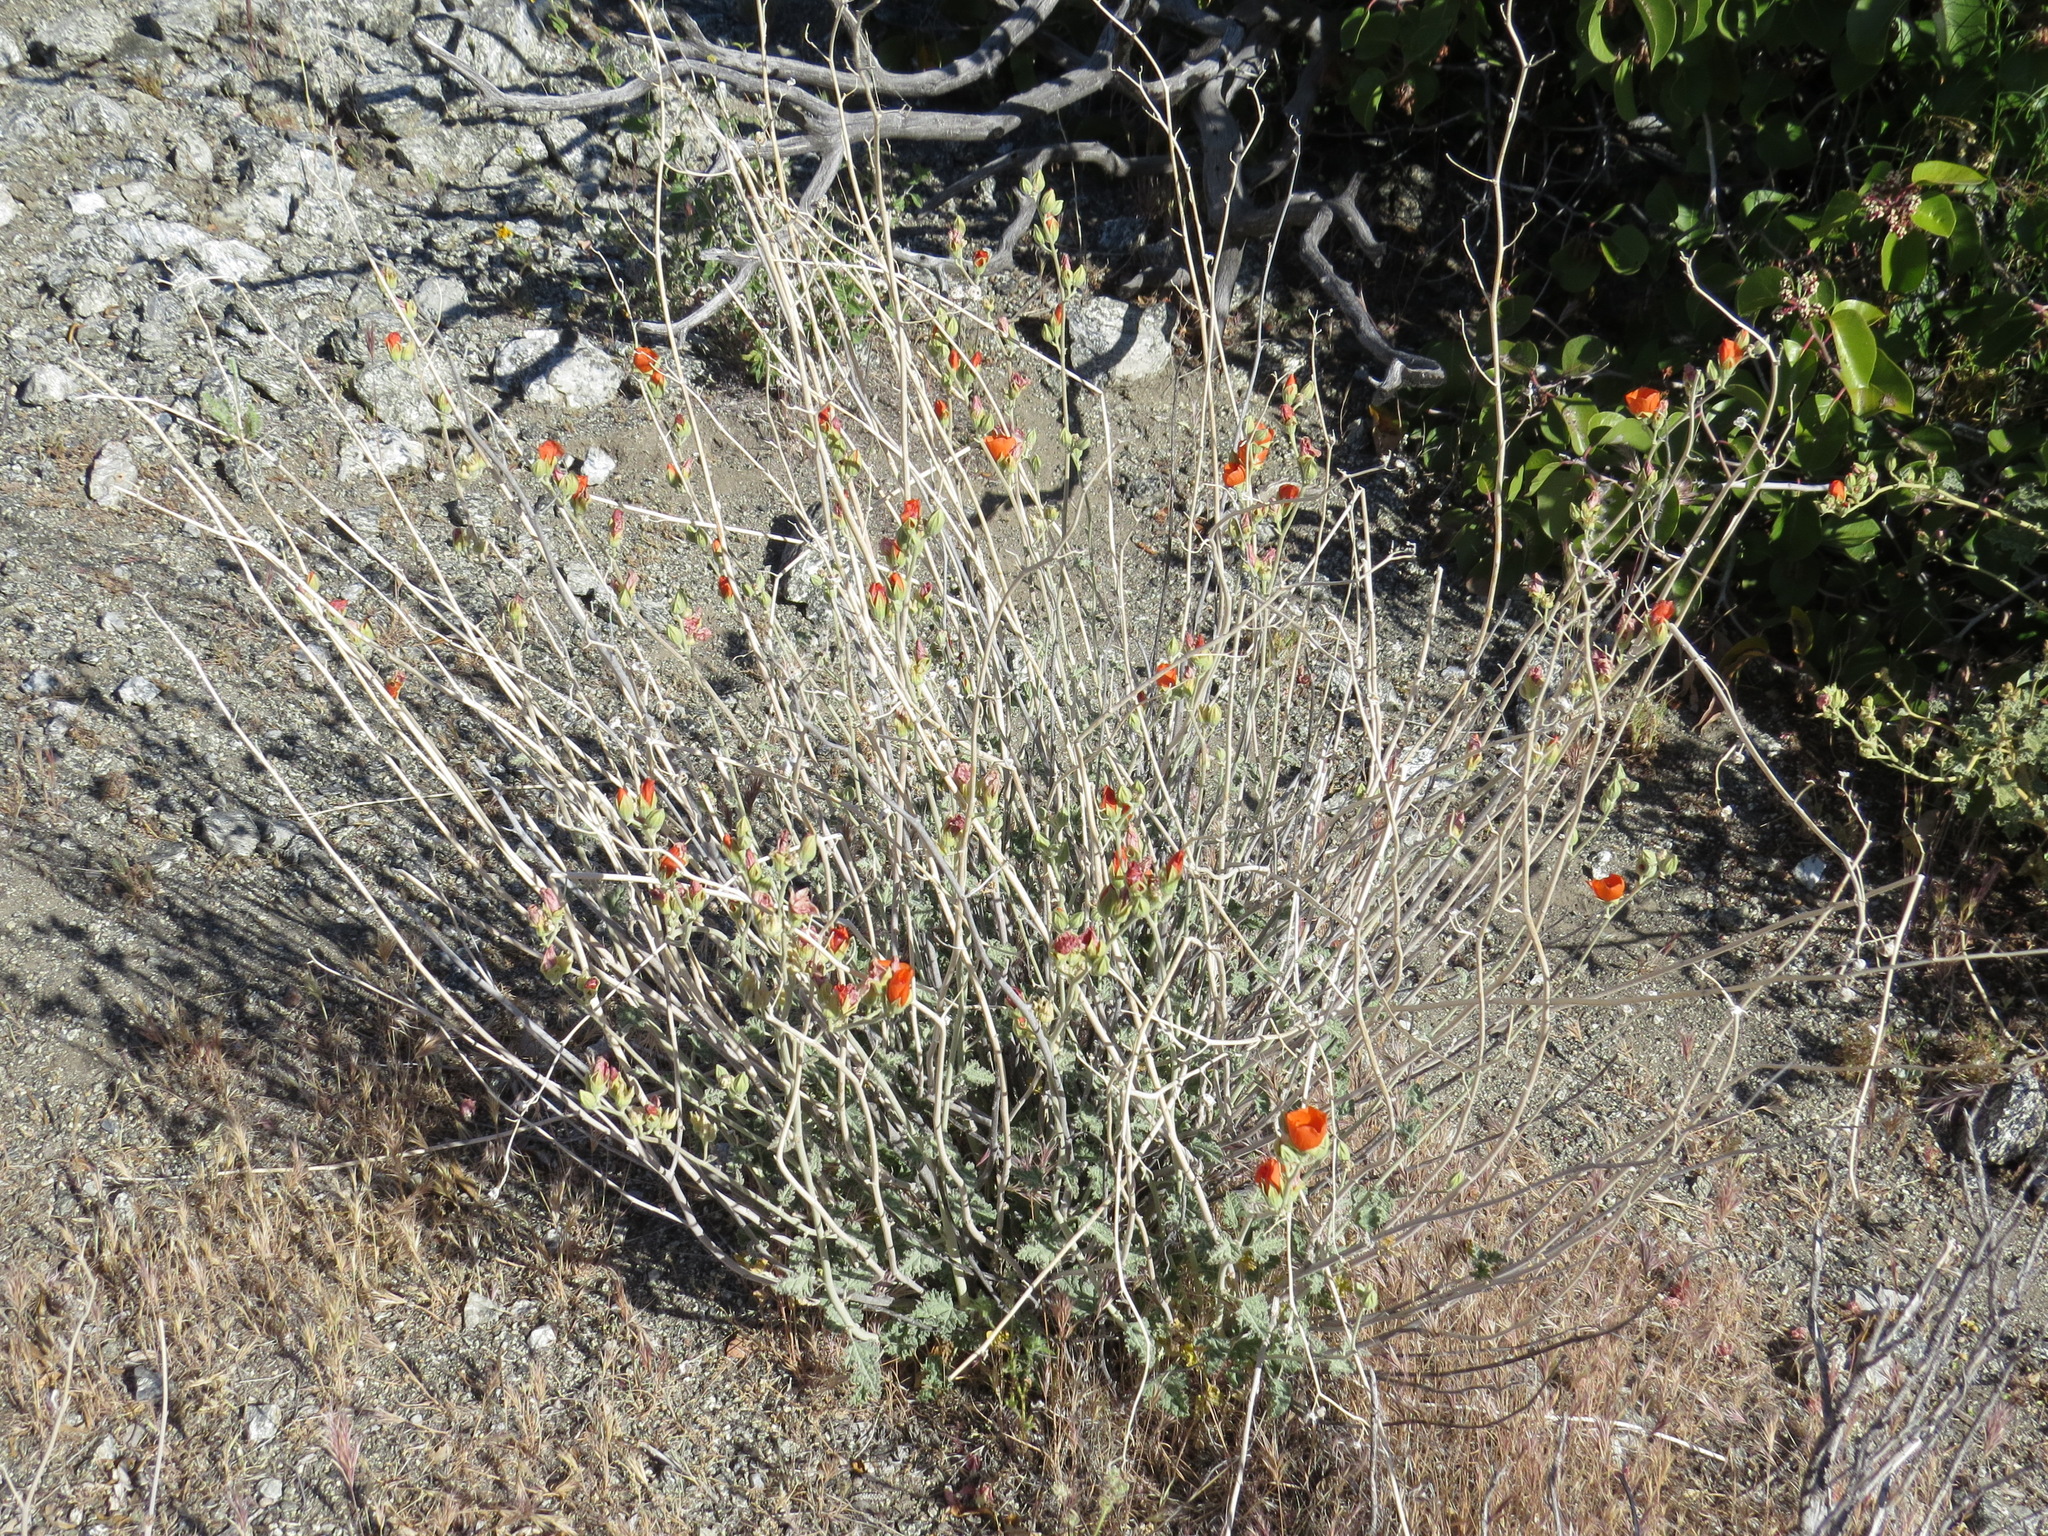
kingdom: Plantae
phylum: Tracheophyta
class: Magnoliopsida
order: Malvales
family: Malvaceae
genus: Sphaeralcea
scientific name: Sphaeralcea ambigua
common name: Apricot globe-mallow
